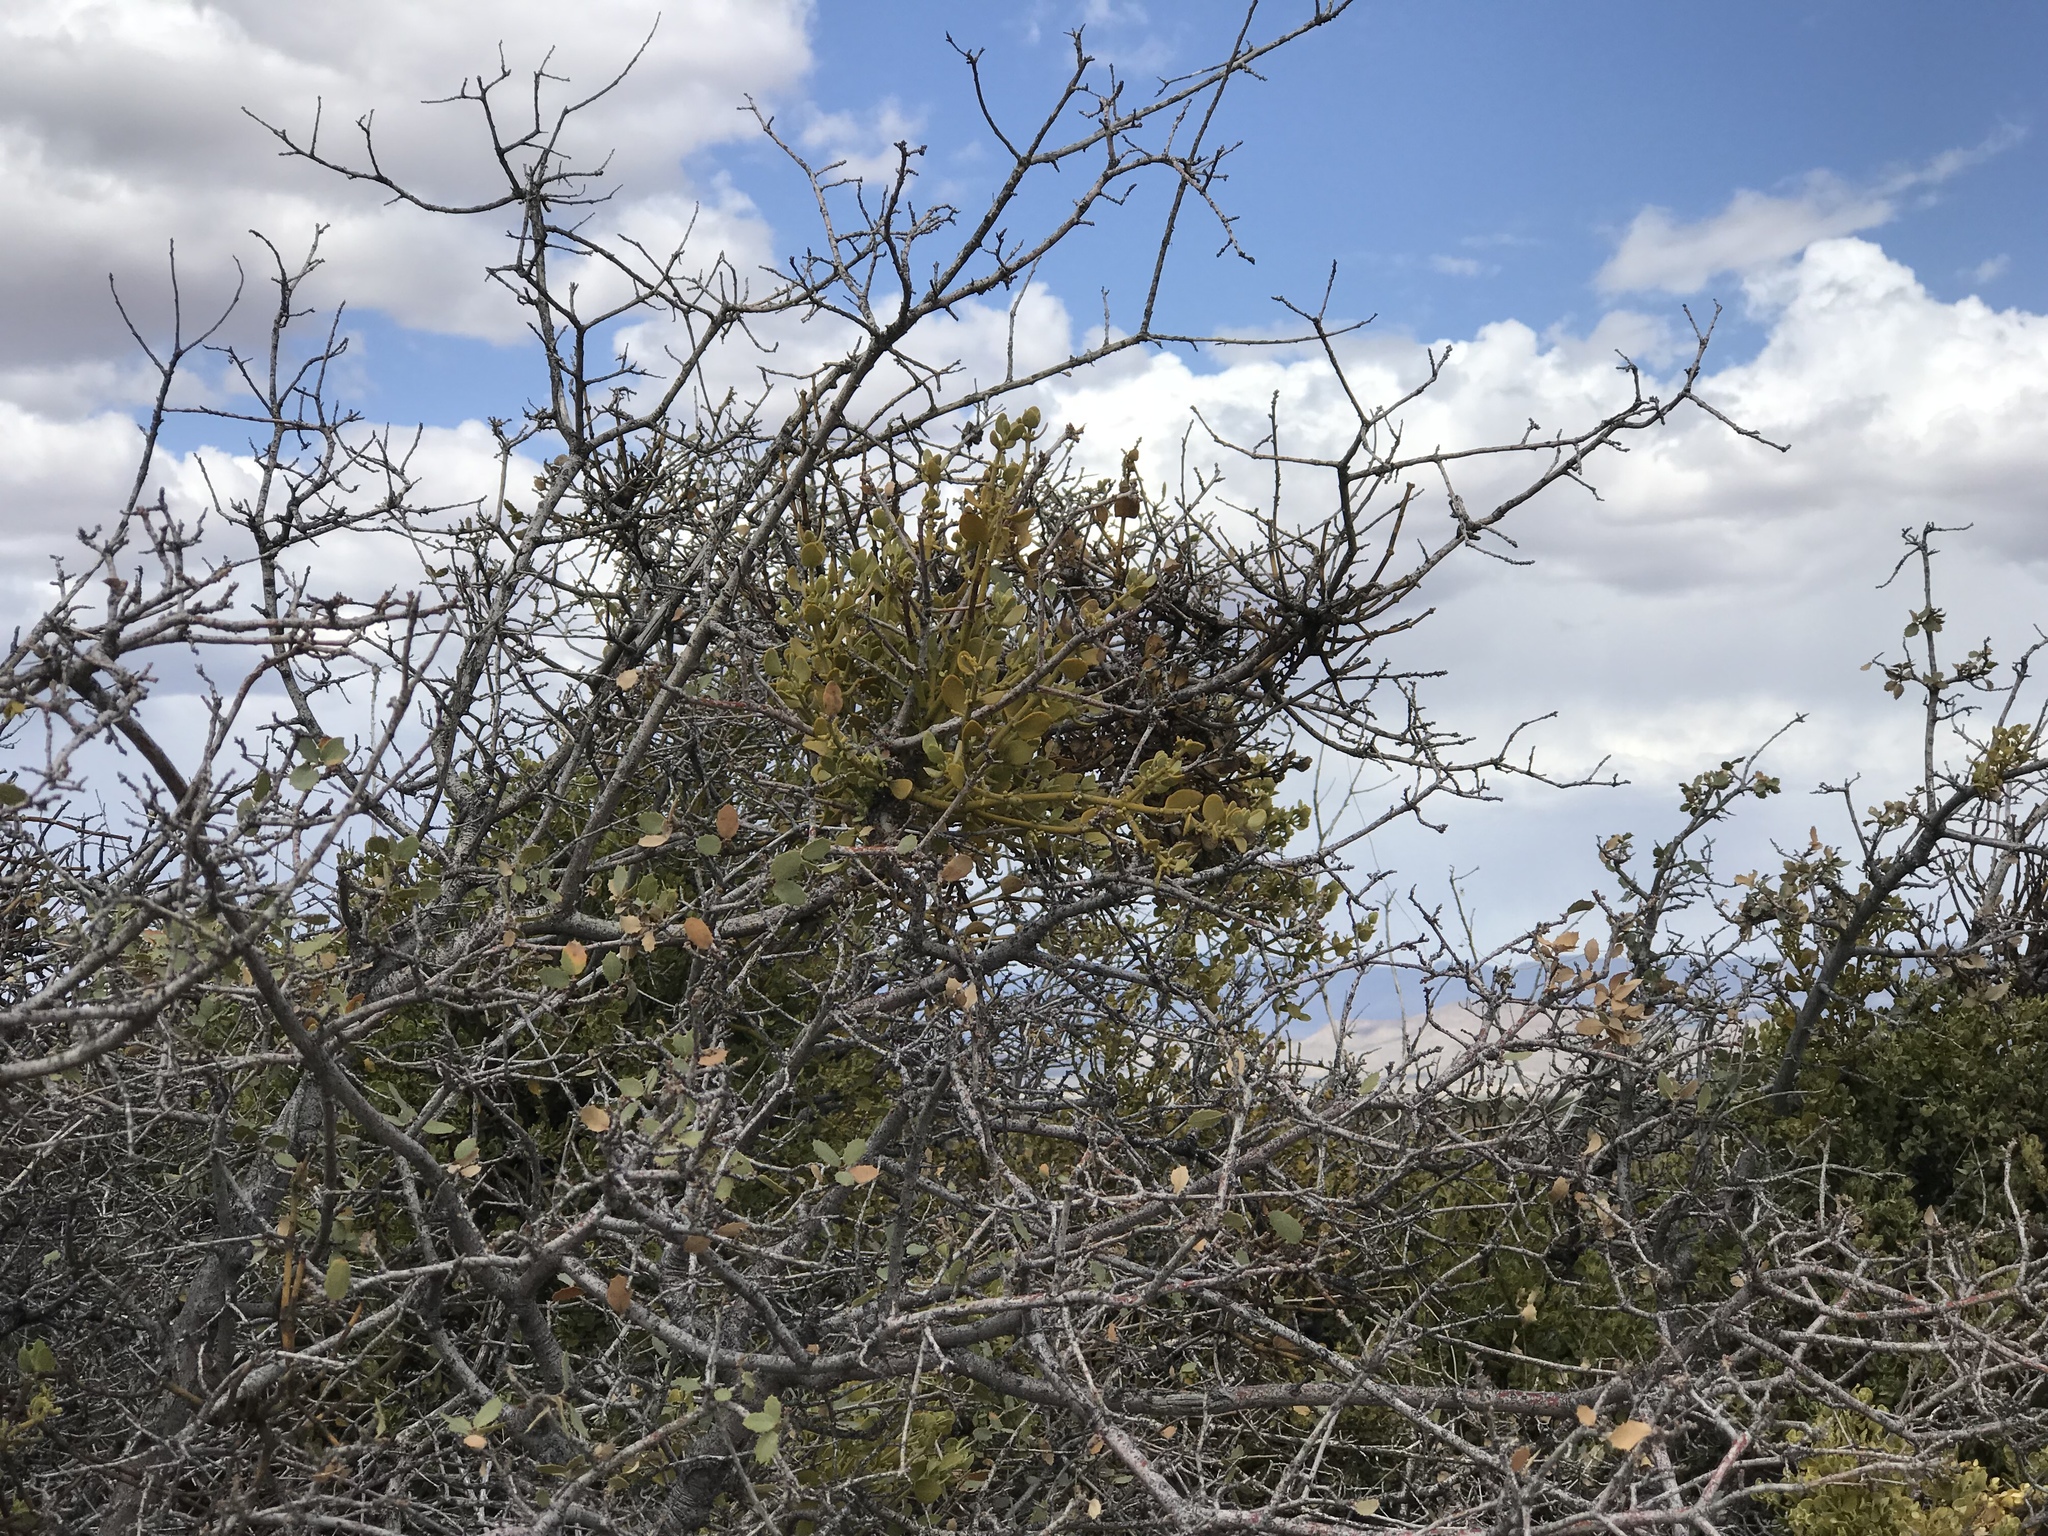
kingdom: Plantae
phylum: Tracheophyta
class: Magnoliopsida
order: Santalales
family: Viscaceae
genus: Phoradendron
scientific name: Phoradendron coryae
